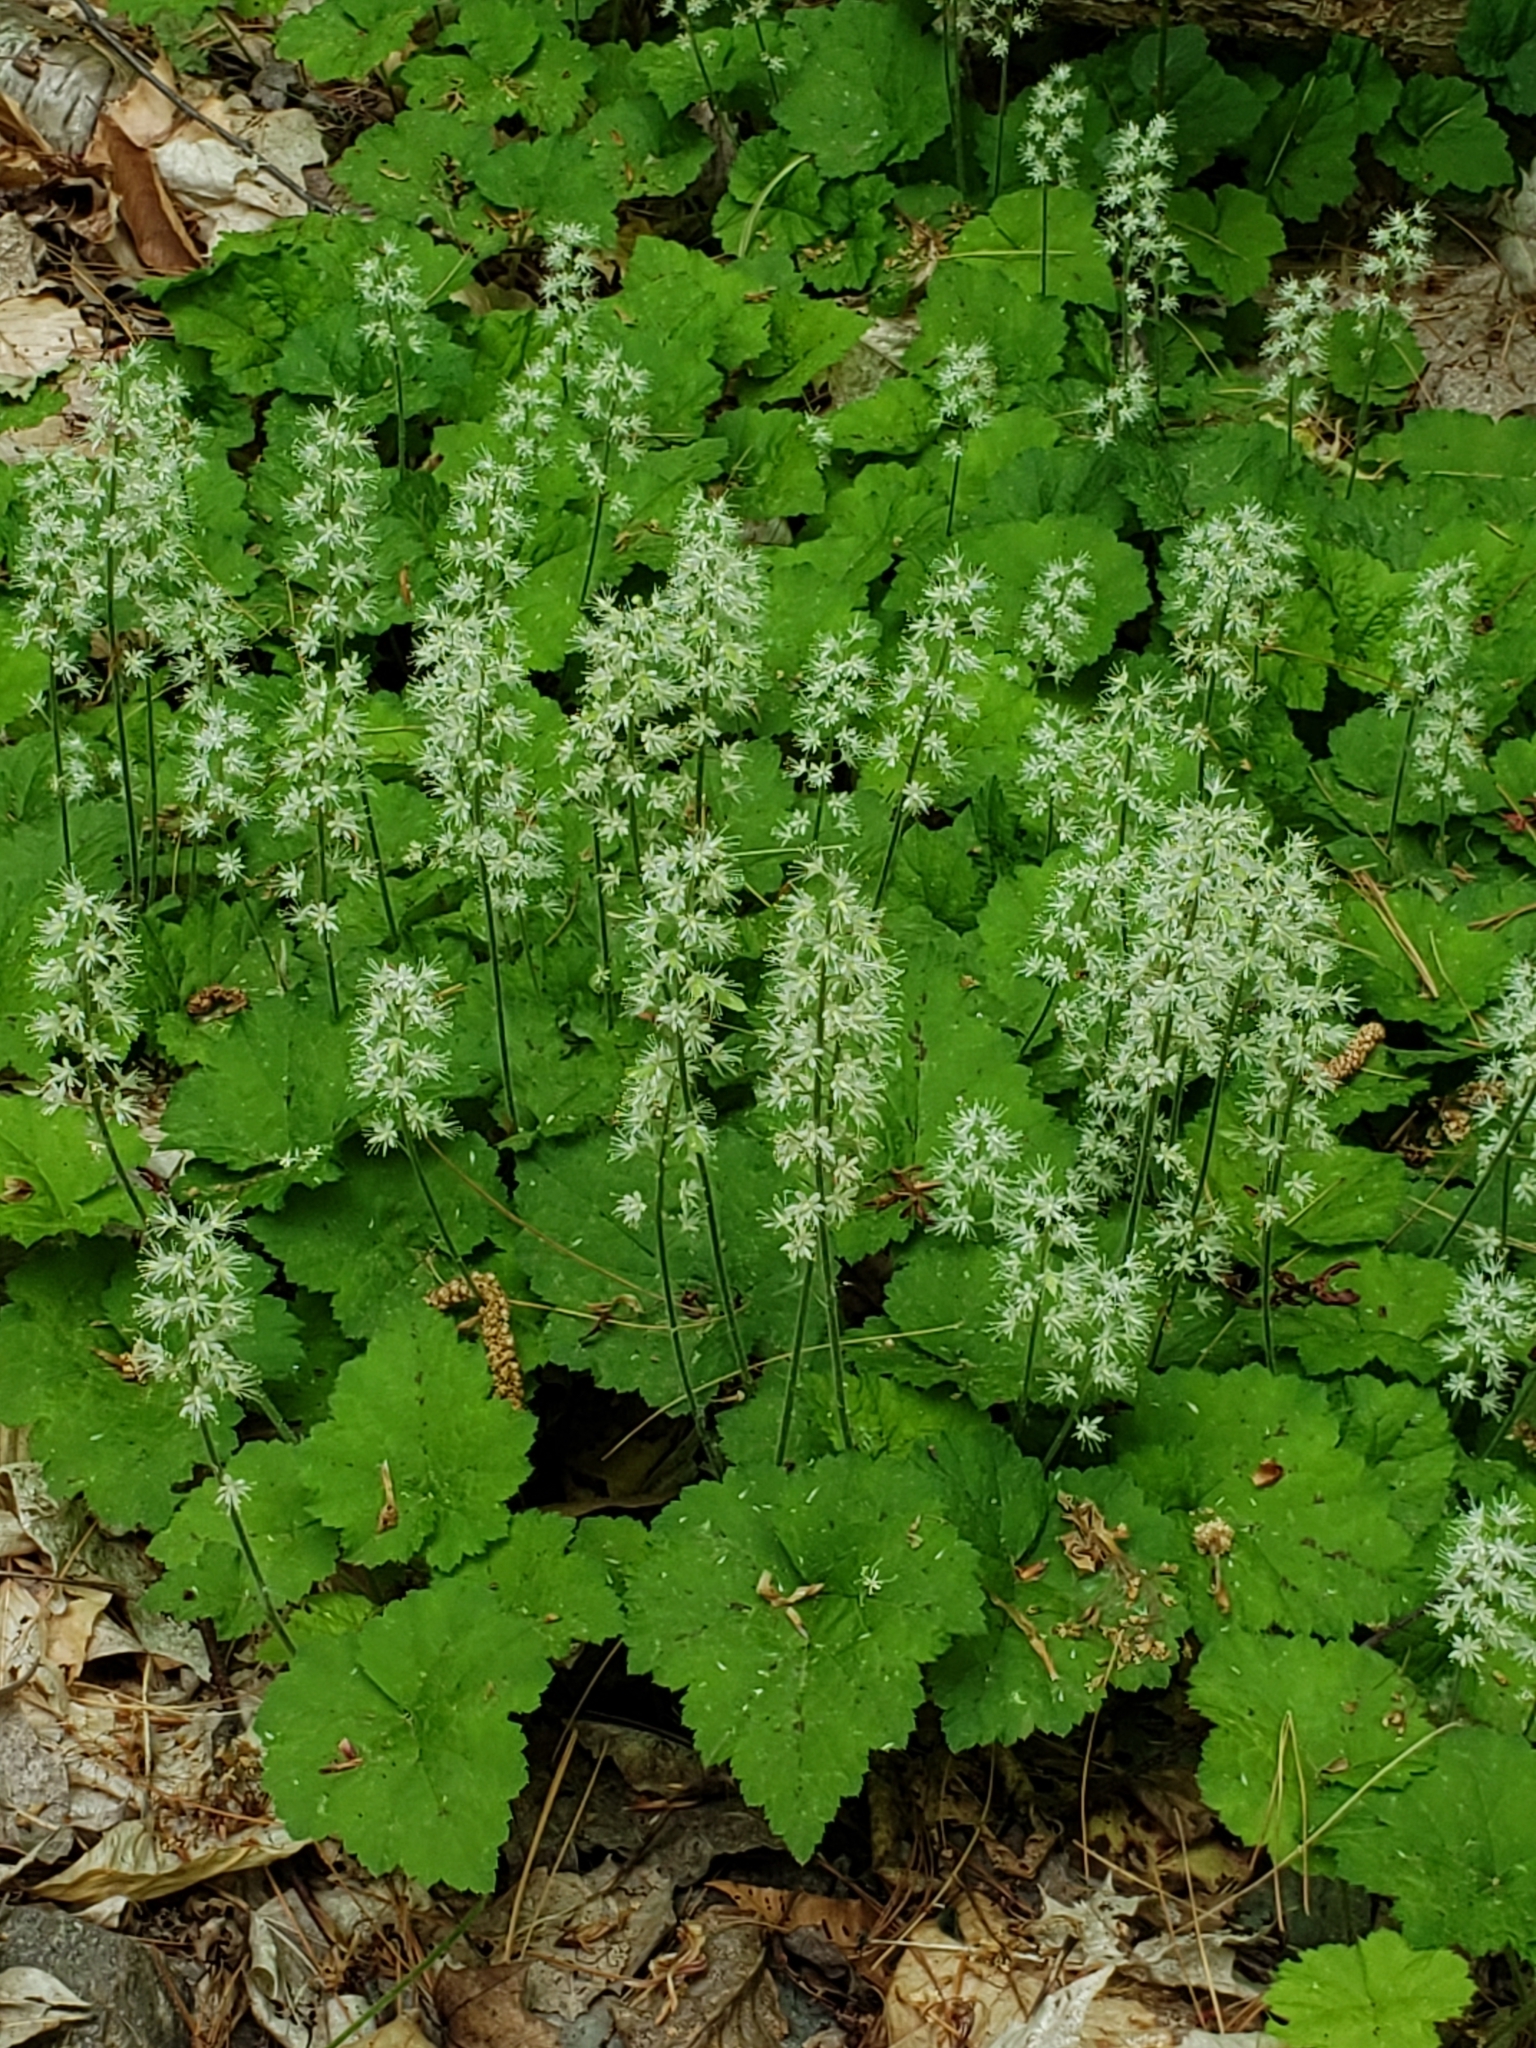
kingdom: Plantae
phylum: Tracheophyta
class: Magnoliopsida
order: Saxifragales
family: Saxifragaceae
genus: Tiarella
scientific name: Tiarella stolonifera
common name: Stoloniferous foamflower
